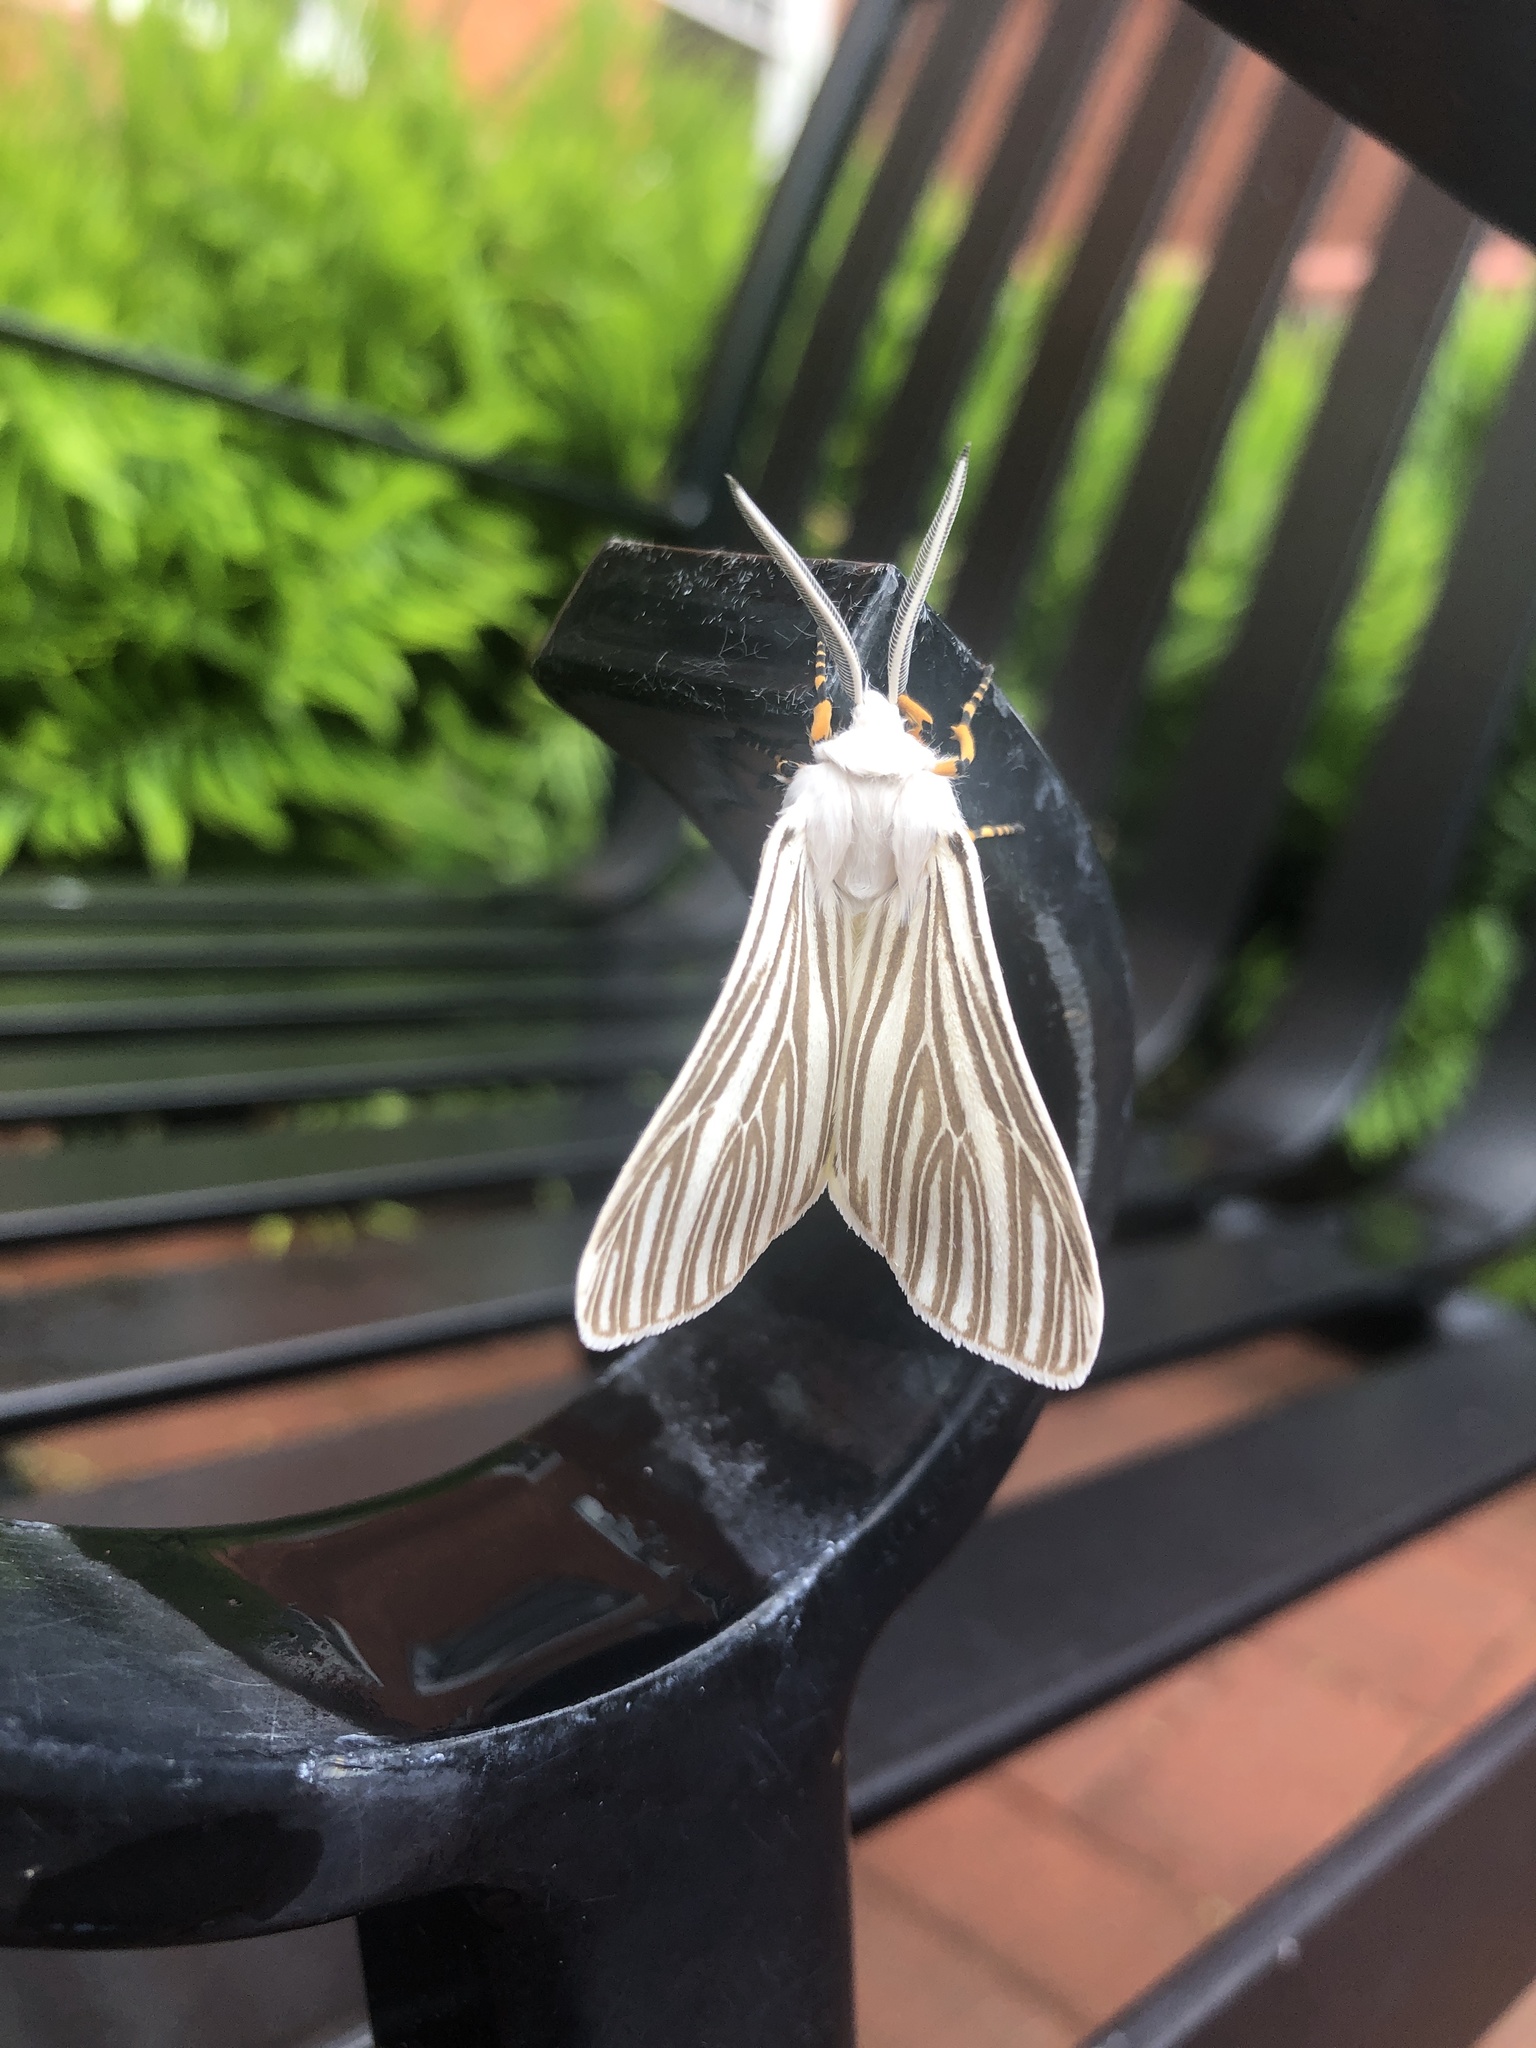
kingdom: Animalia
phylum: Arthropoda
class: Insecta
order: Lepidoptera
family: Erebidae
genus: Seirarctia
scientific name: Seirarctia echo
